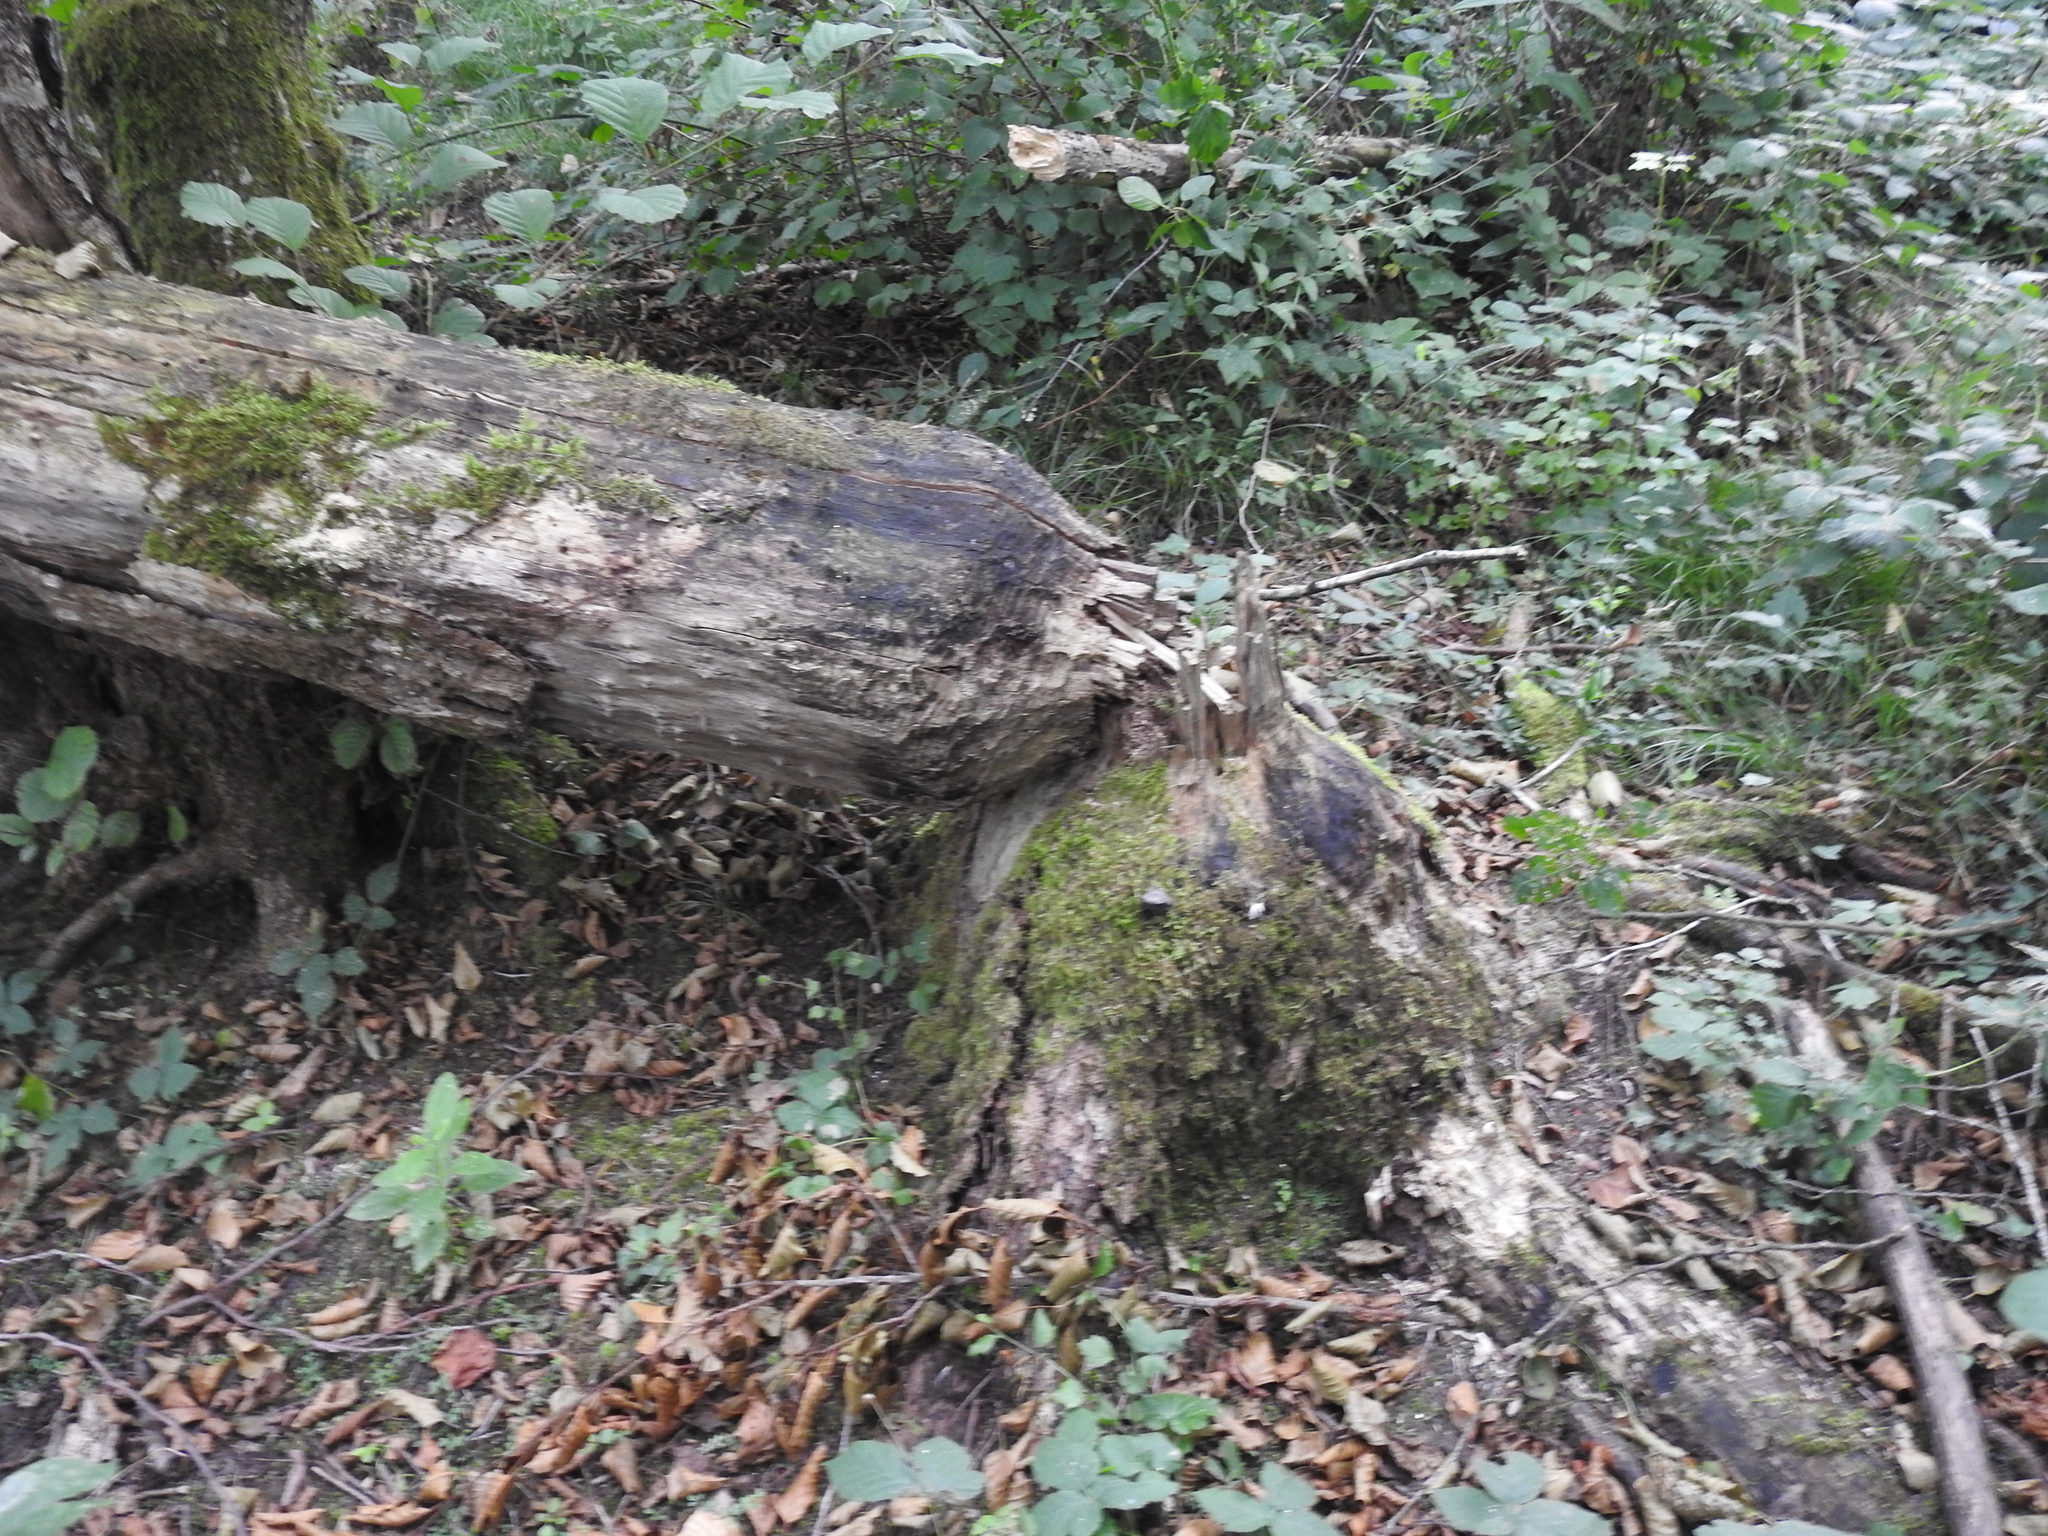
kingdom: Animalia
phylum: Chordata
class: Mammalia
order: Rodentia
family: Castoridae
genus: Castor
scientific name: Castor fiber
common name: Eurasian beaver
